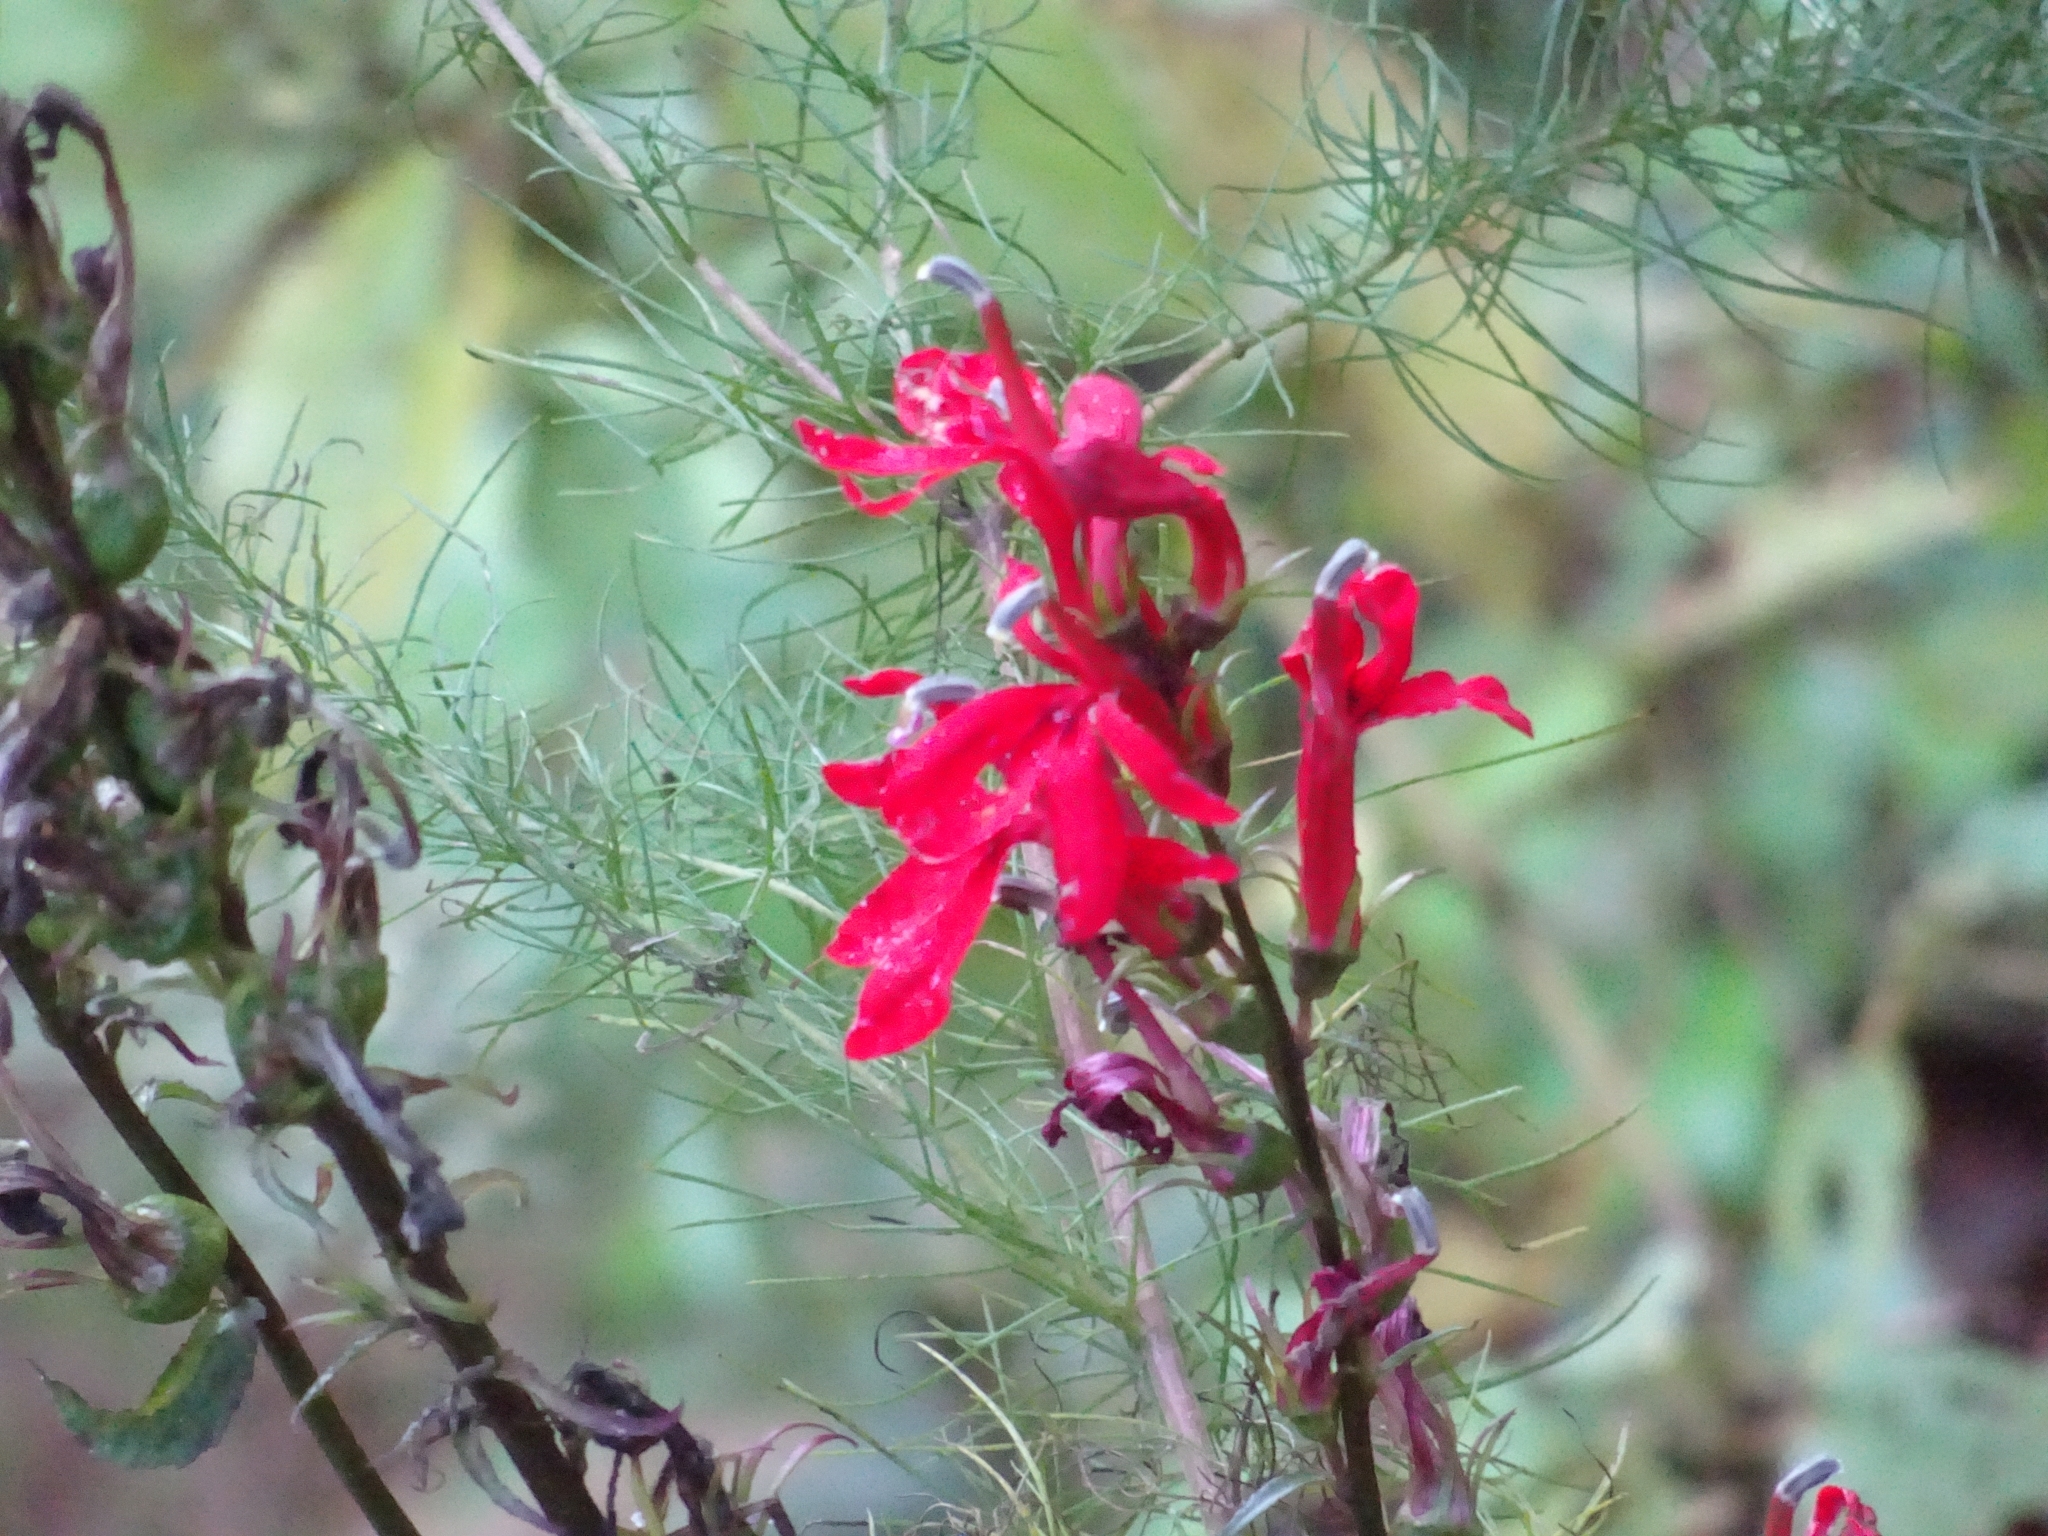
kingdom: Plantae
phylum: Tracheophyta
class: Magnoliopsida
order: Asterales
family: Campanulaceae
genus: Lobelia
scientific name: Lobelia cardinalis
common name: Cardinal flower
